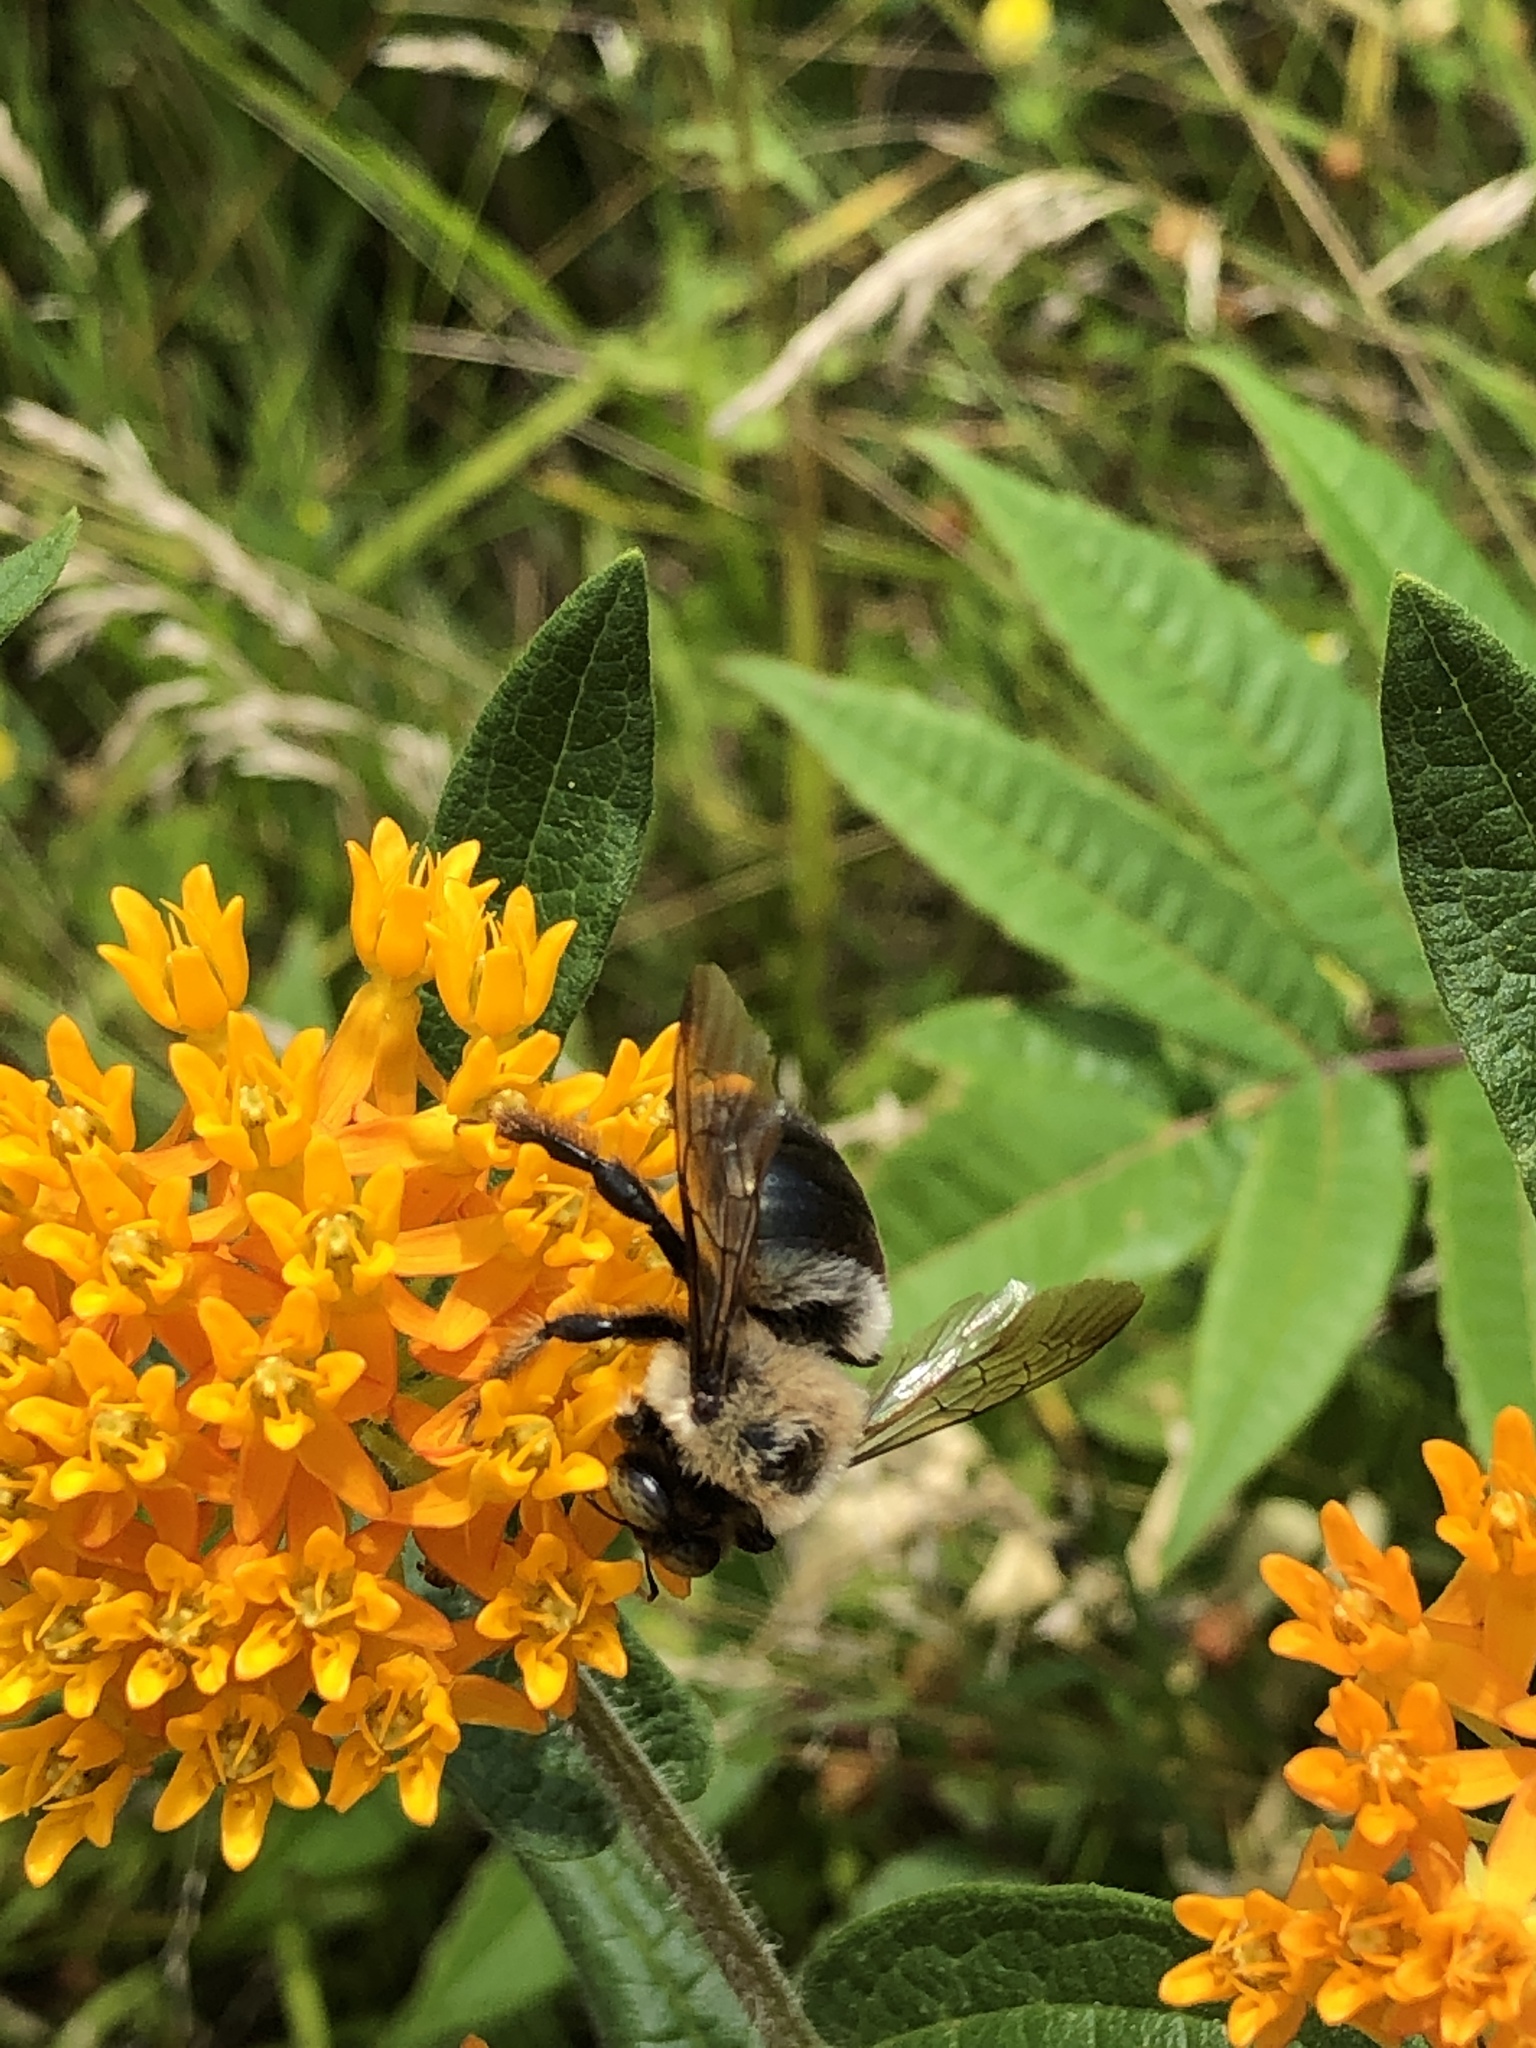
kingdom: Animalia
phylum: Arthropoda
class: Insecta
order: Hymenoptera
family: Apidae
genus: Xylocopa
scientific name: Xylocopa virginica
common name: Carpenter bee
